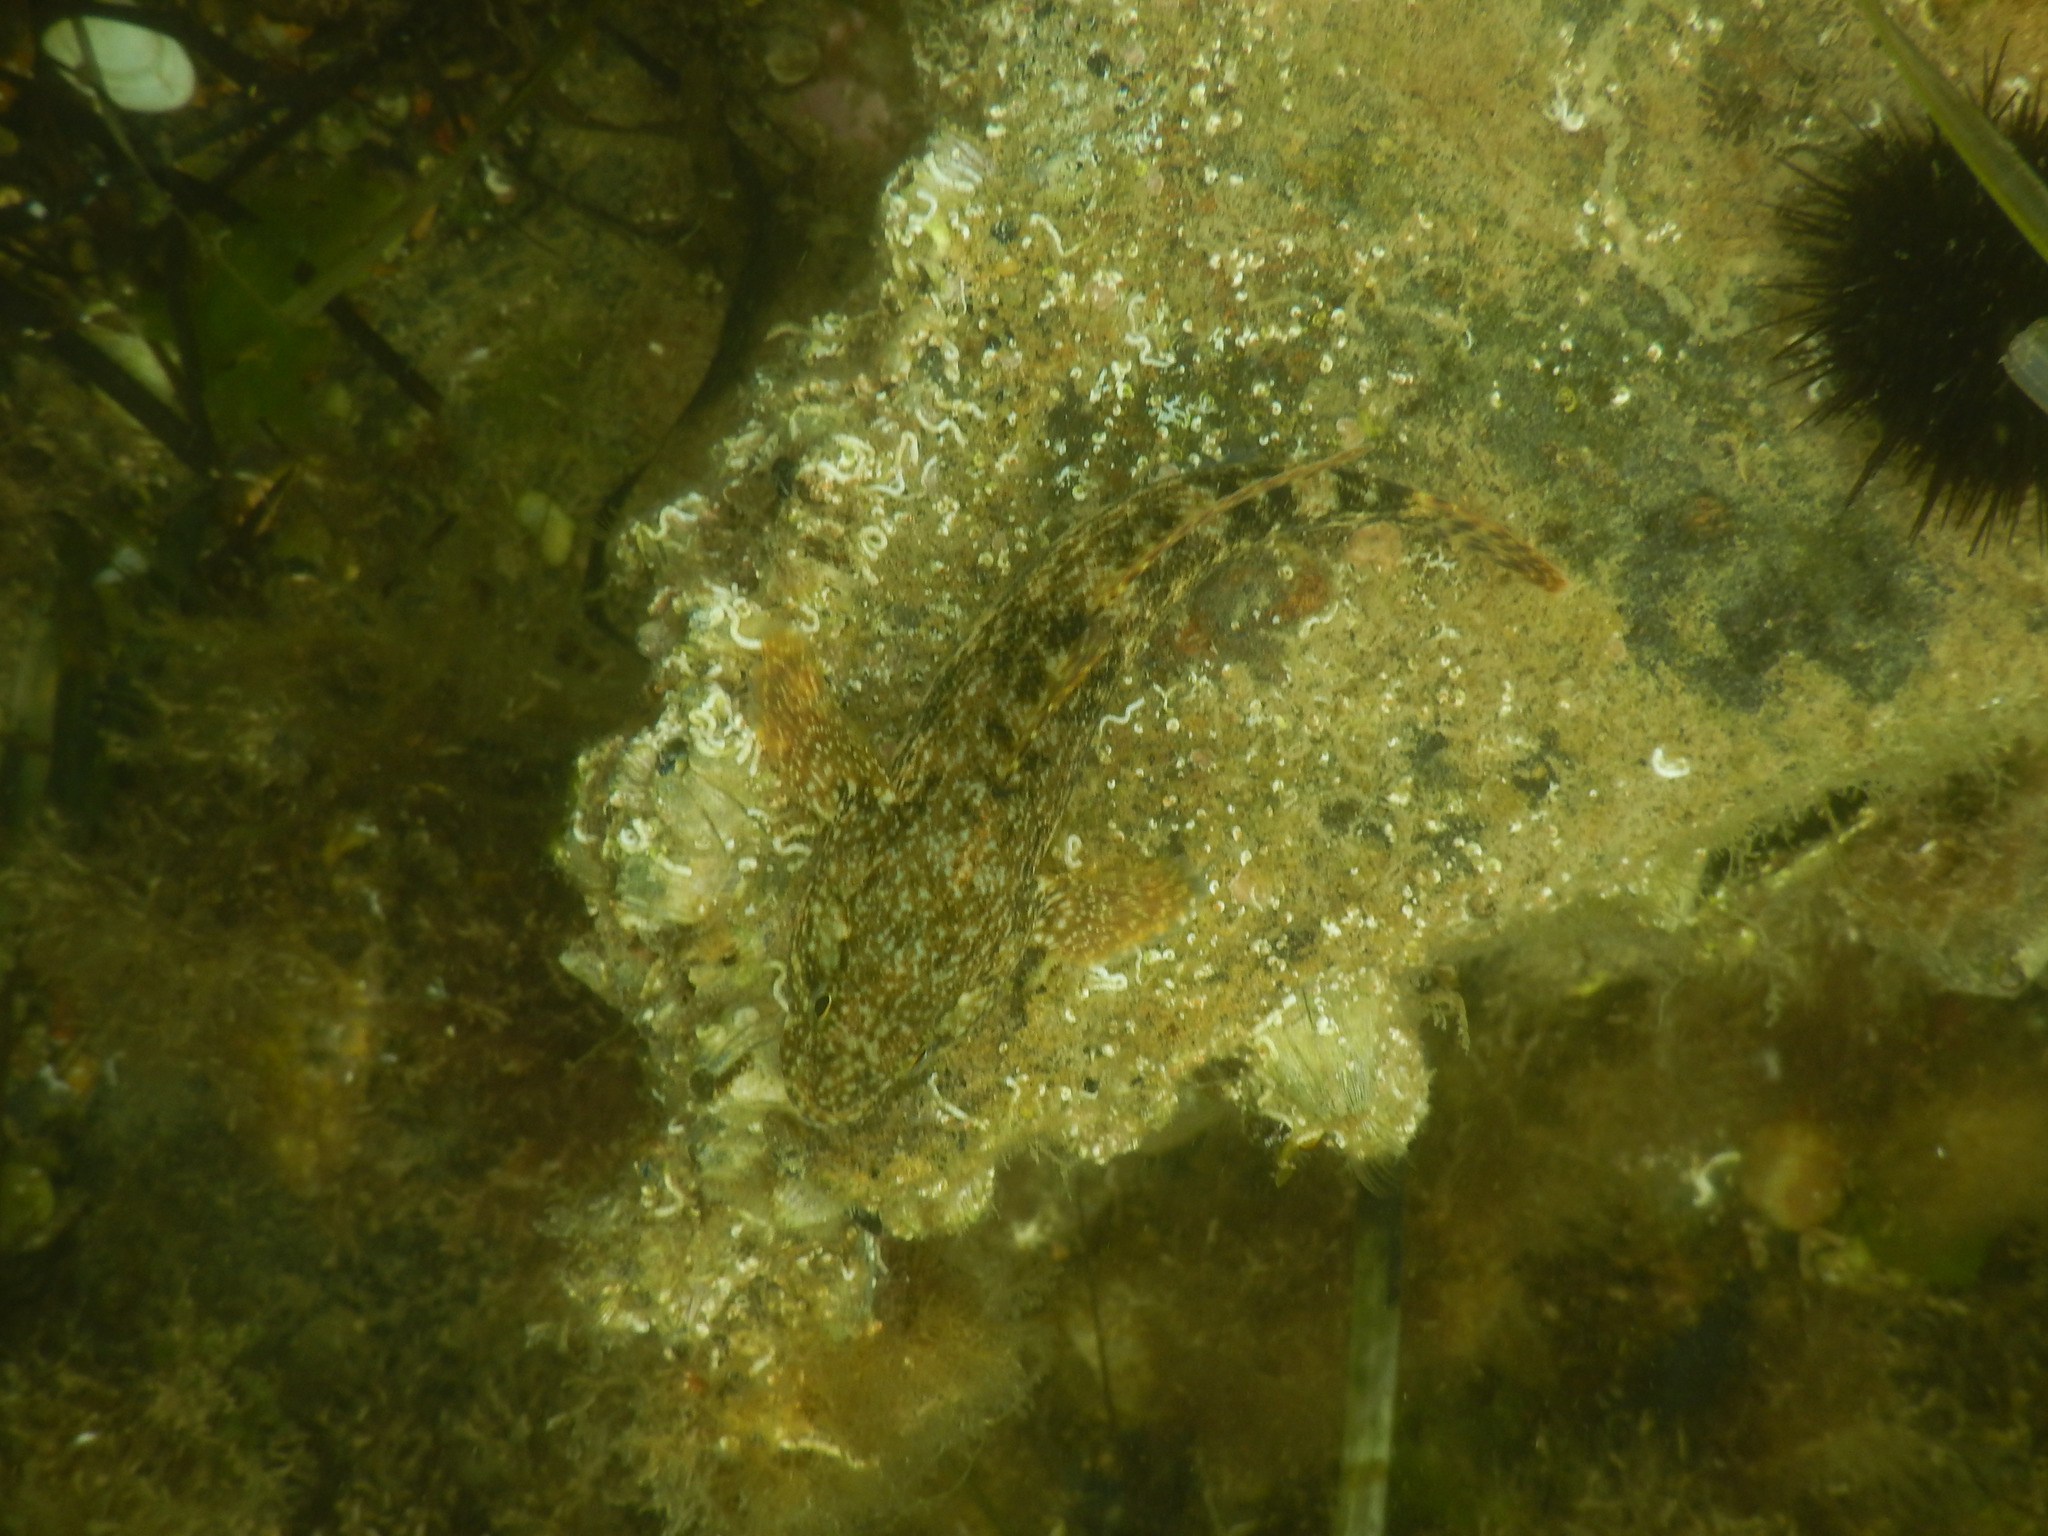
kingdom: Animalia
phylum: Chordata
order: Perciformes
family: Gobiidae
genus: Gobius
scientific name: Gobius cobitis
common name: Giant goby
